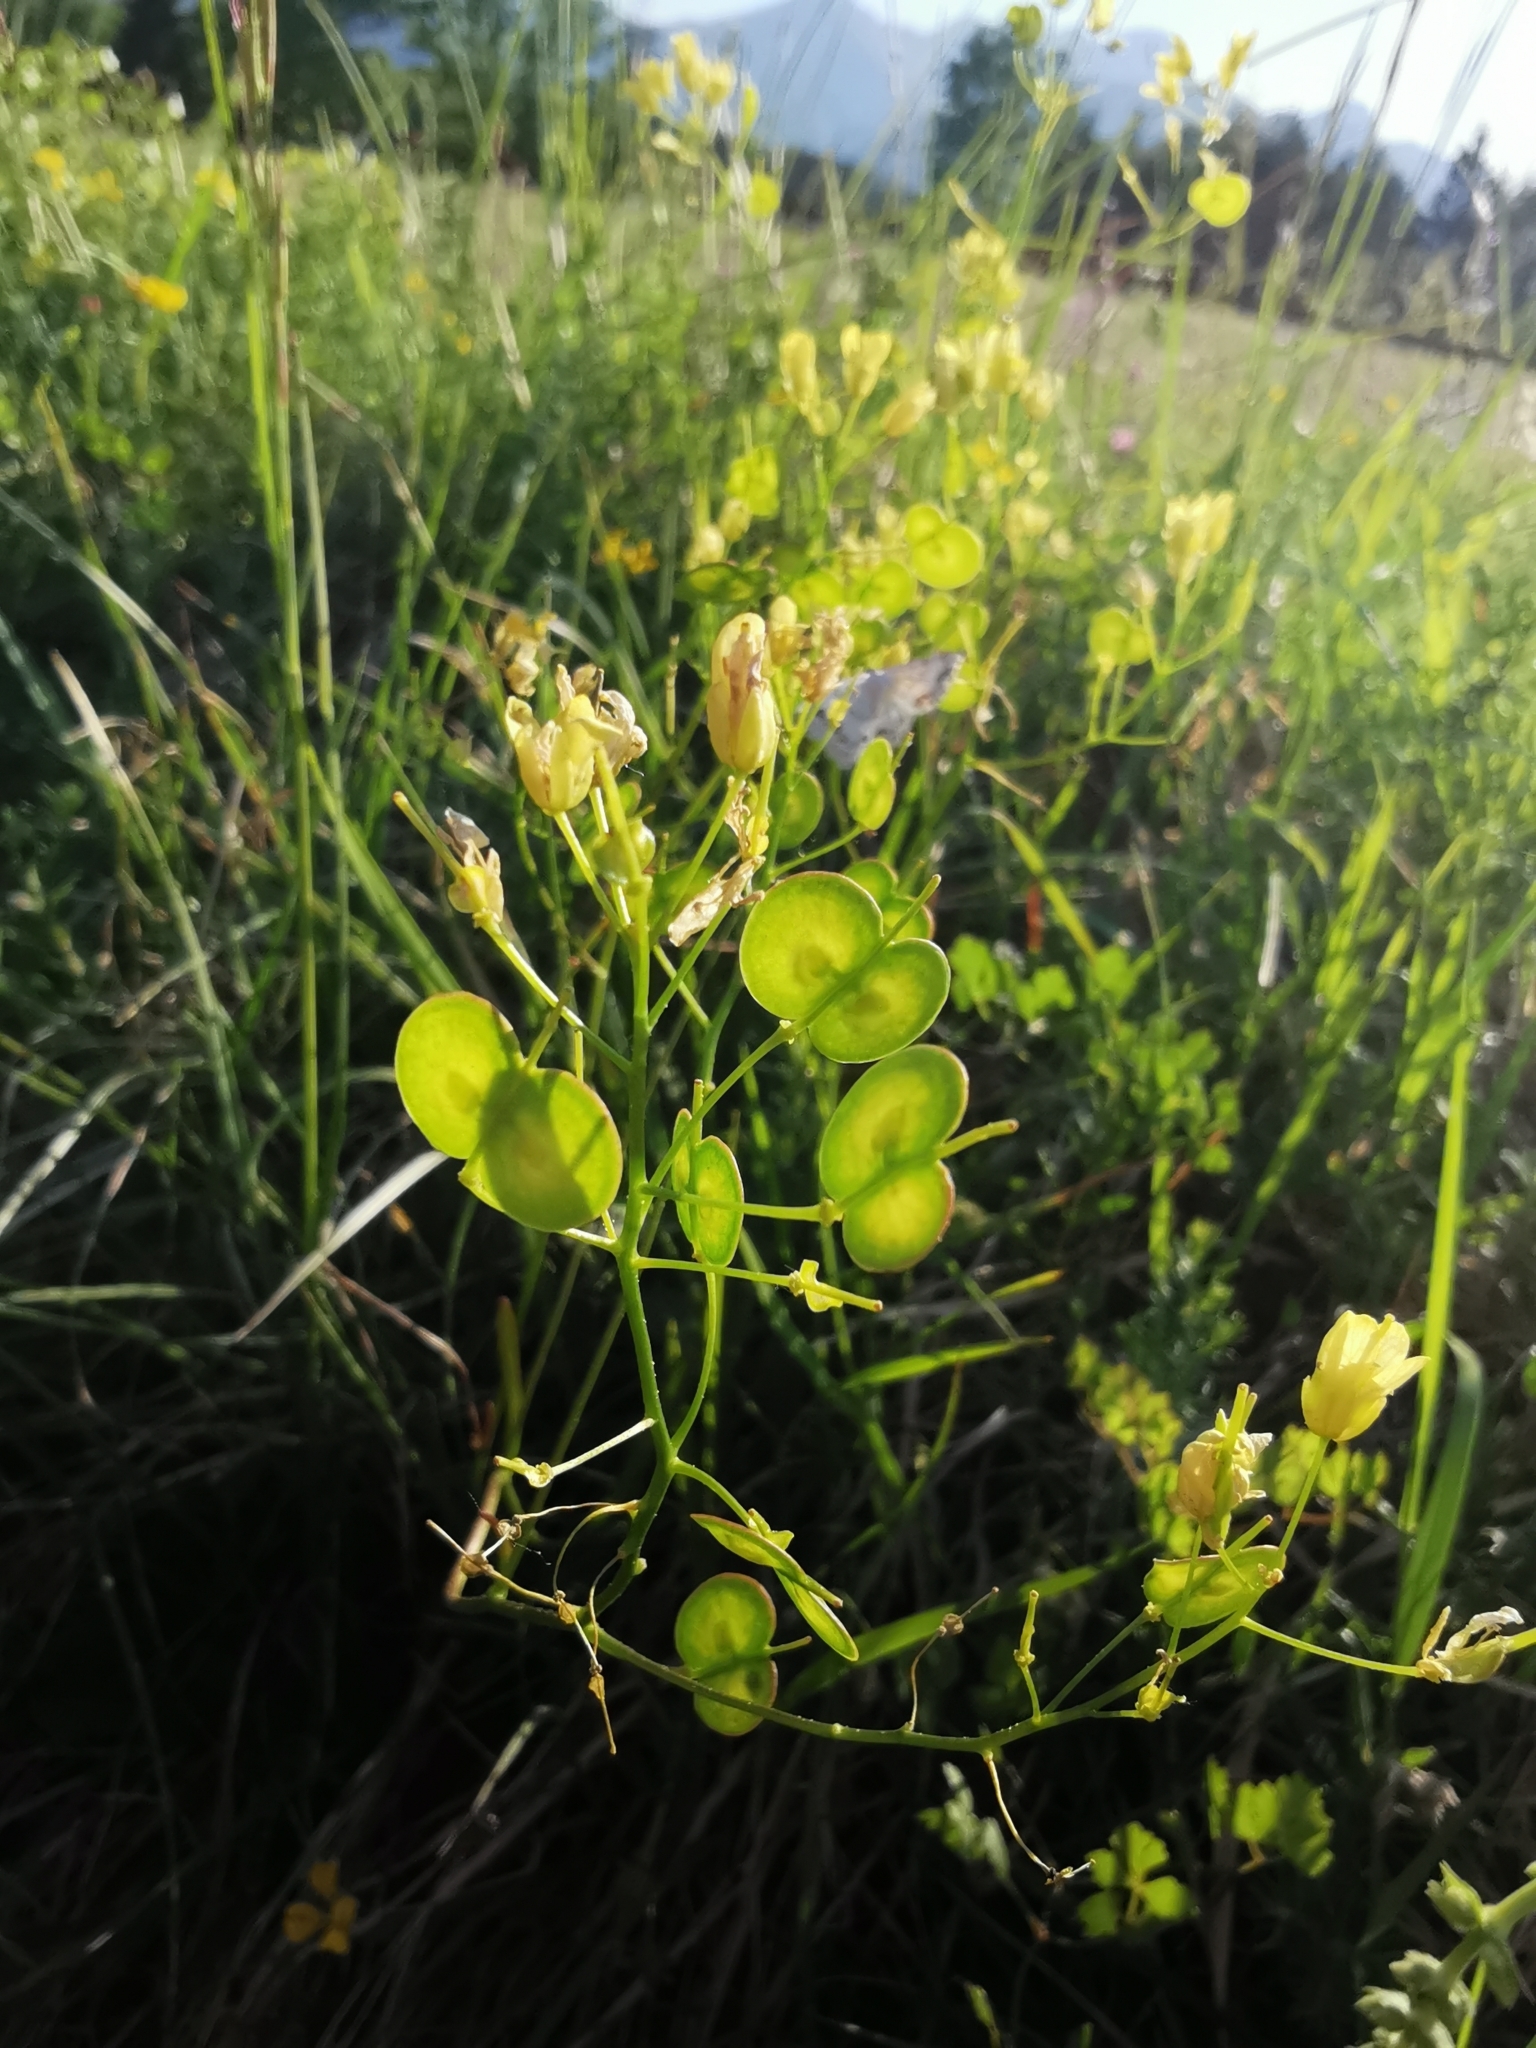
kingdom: Plantae
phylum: Tracheophyta
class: Magnoliopsida
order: Brassicales
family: Brassicaceae
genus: Biscutella
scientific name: Biscutella laevigata
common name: Buckler mustard
